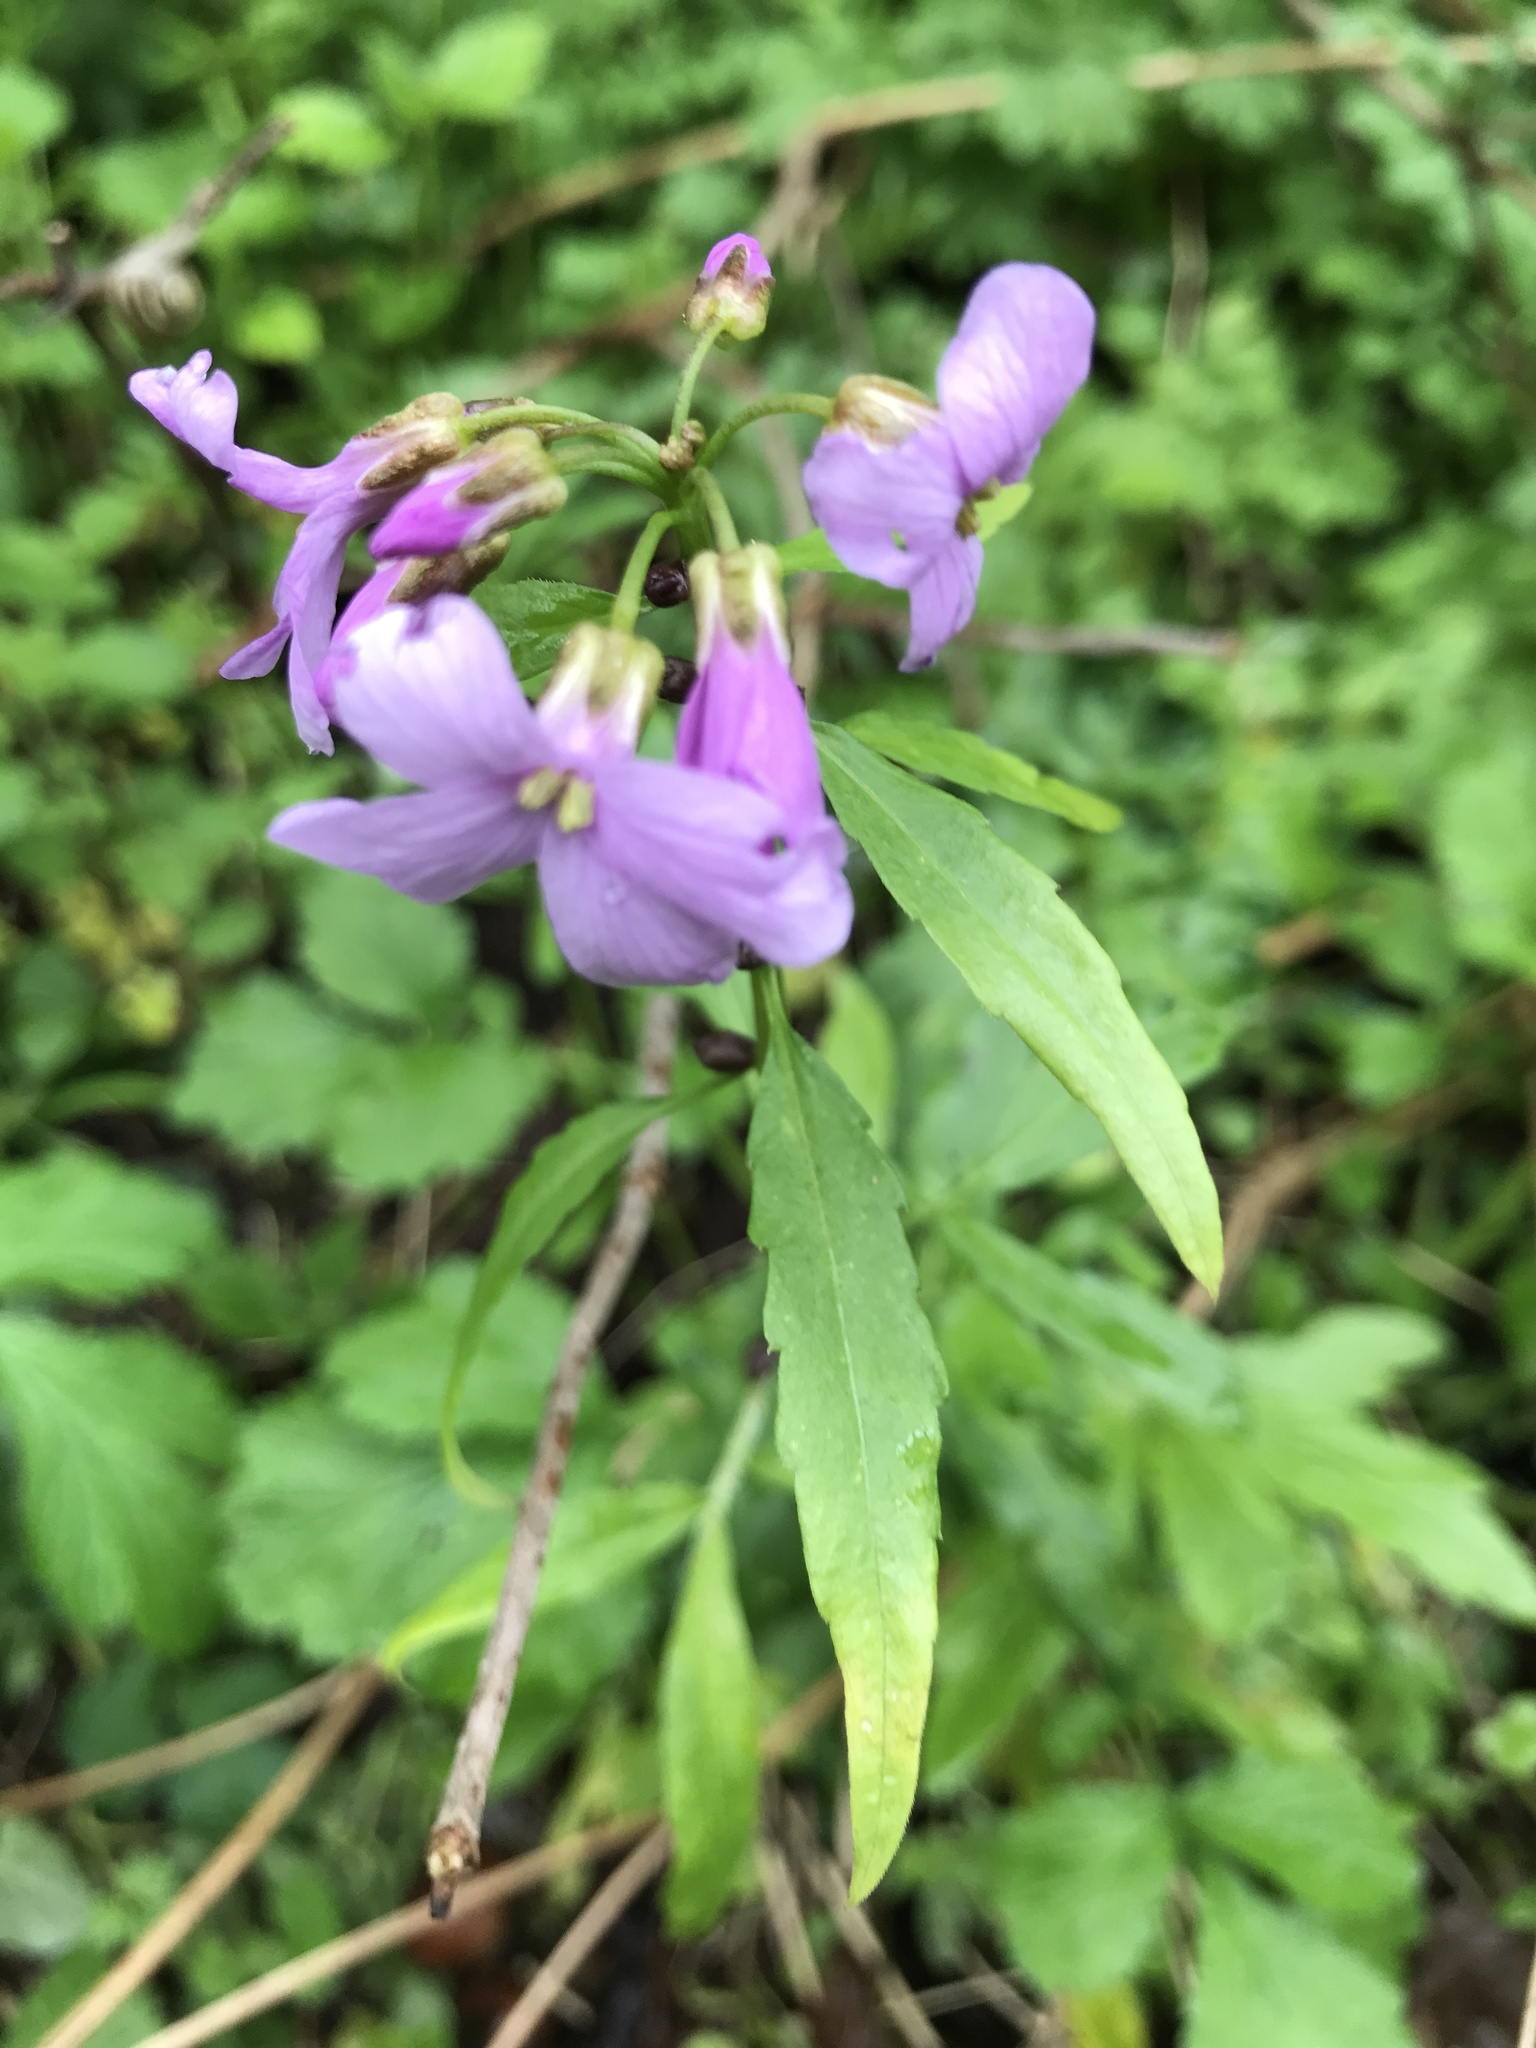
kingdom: Plantae
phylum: Tracheophyta
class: Magnoliopsida
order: Brassicales
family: Brassicaceae
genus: Cardamine
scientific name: Cardamine bulbifera
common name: Coralroot bittercress
